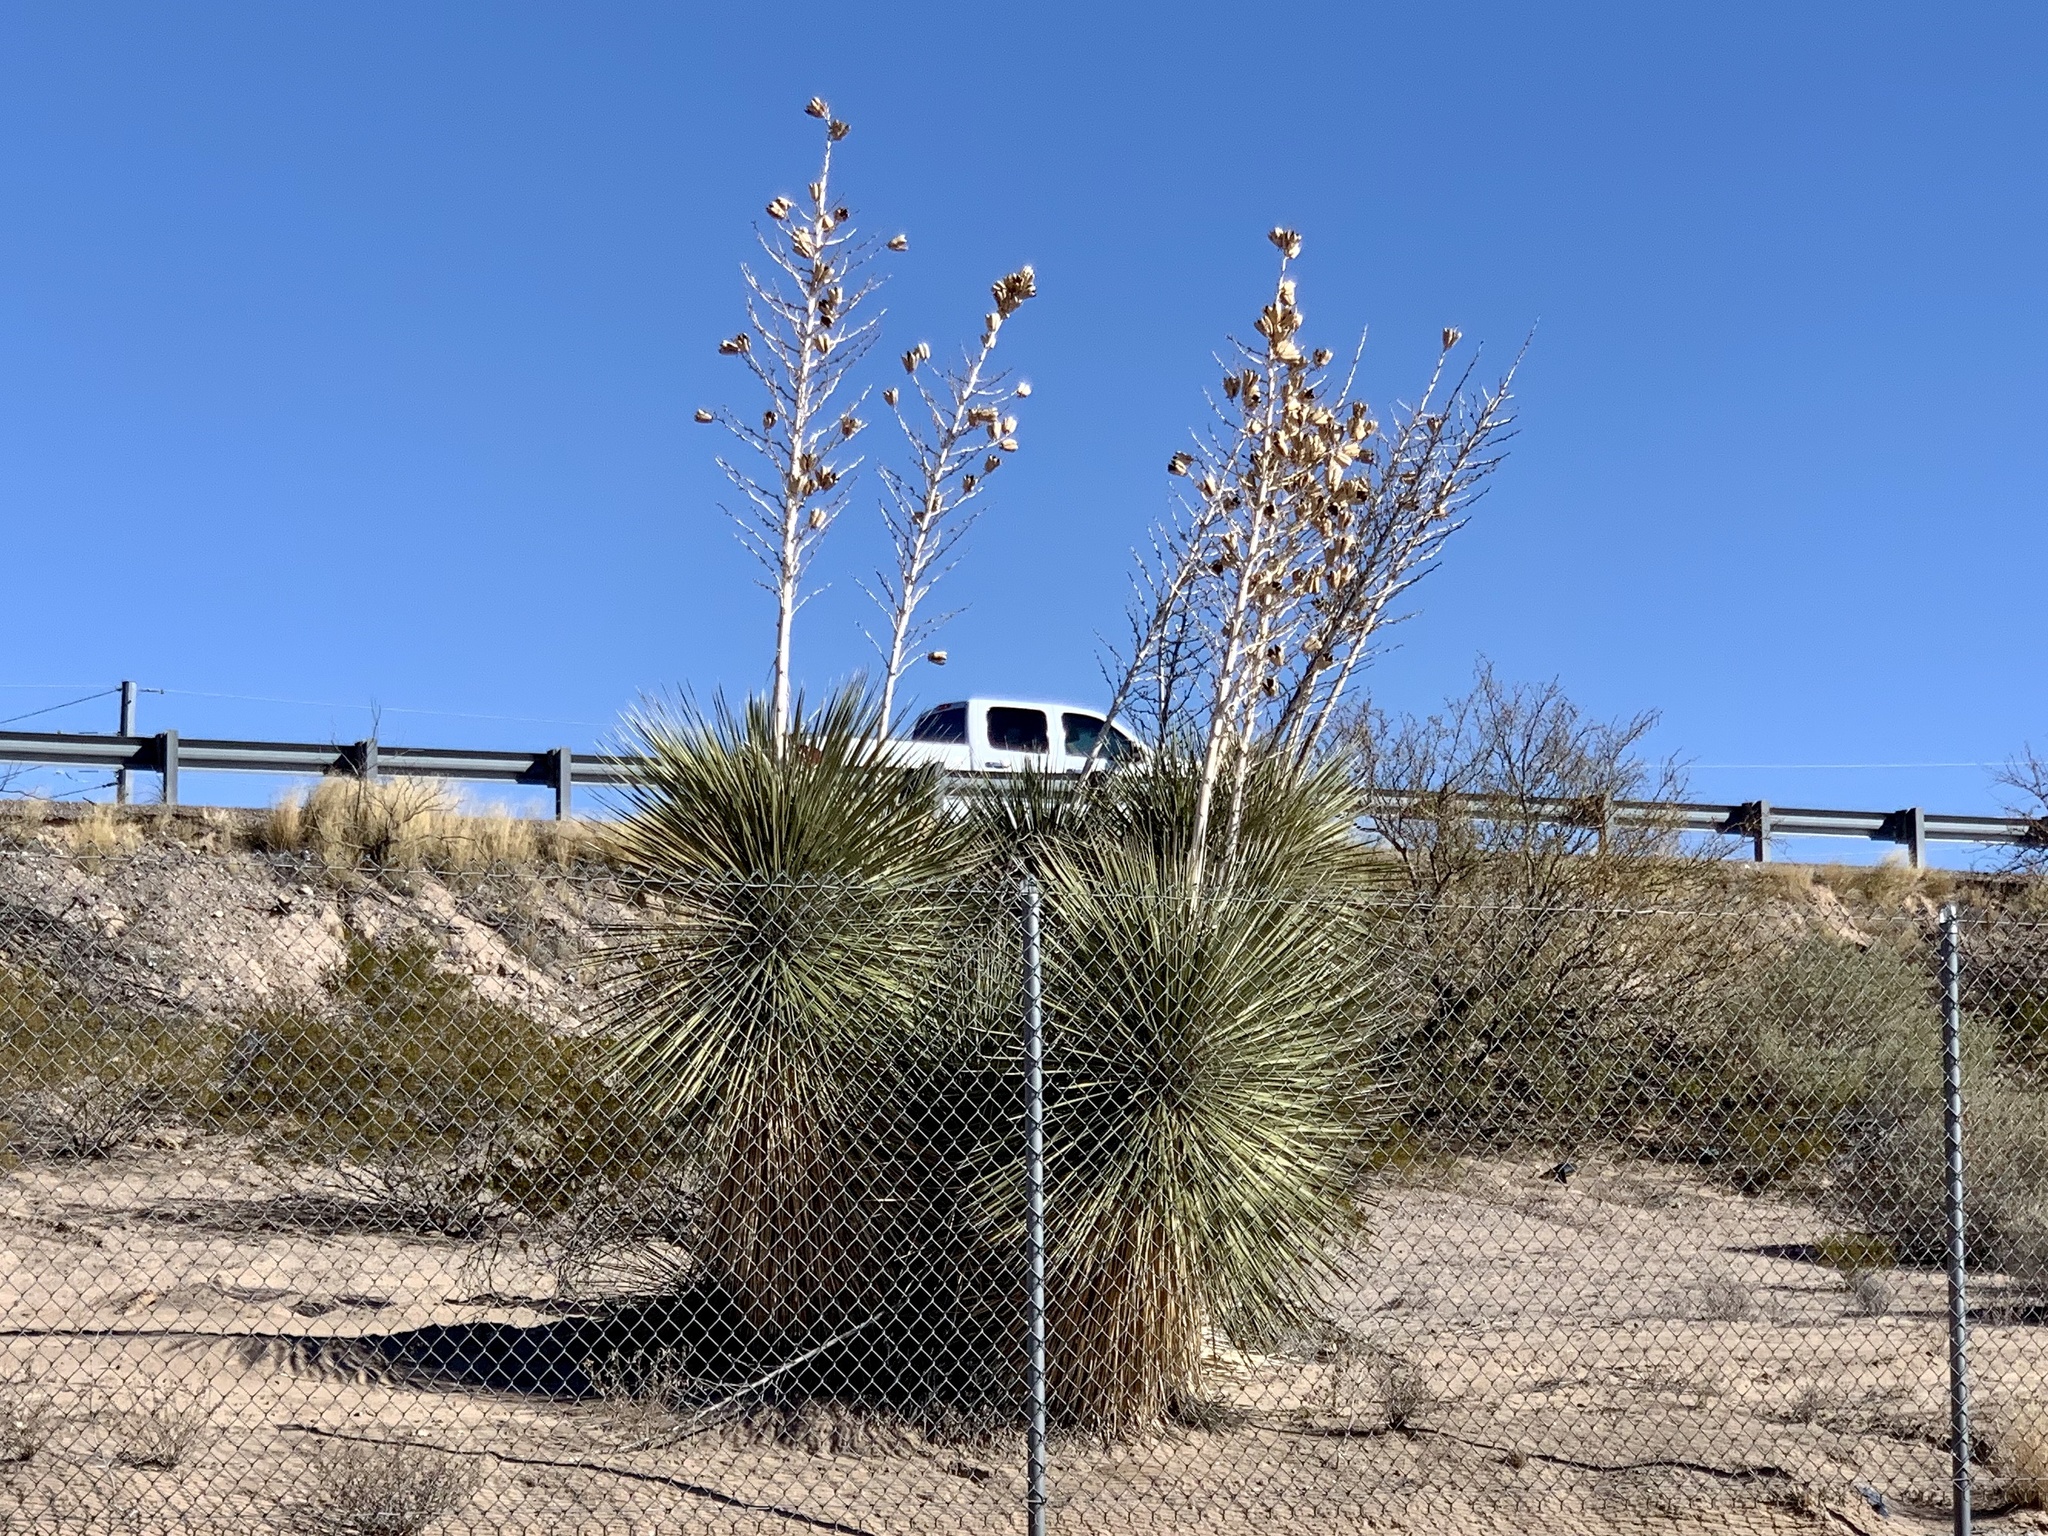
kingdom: Plantae
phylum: Tracheophyta
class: Liliopsida
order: Asparagales
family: Asparagaceae
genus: Yucca
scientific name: Yucca elata
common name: Palmella
